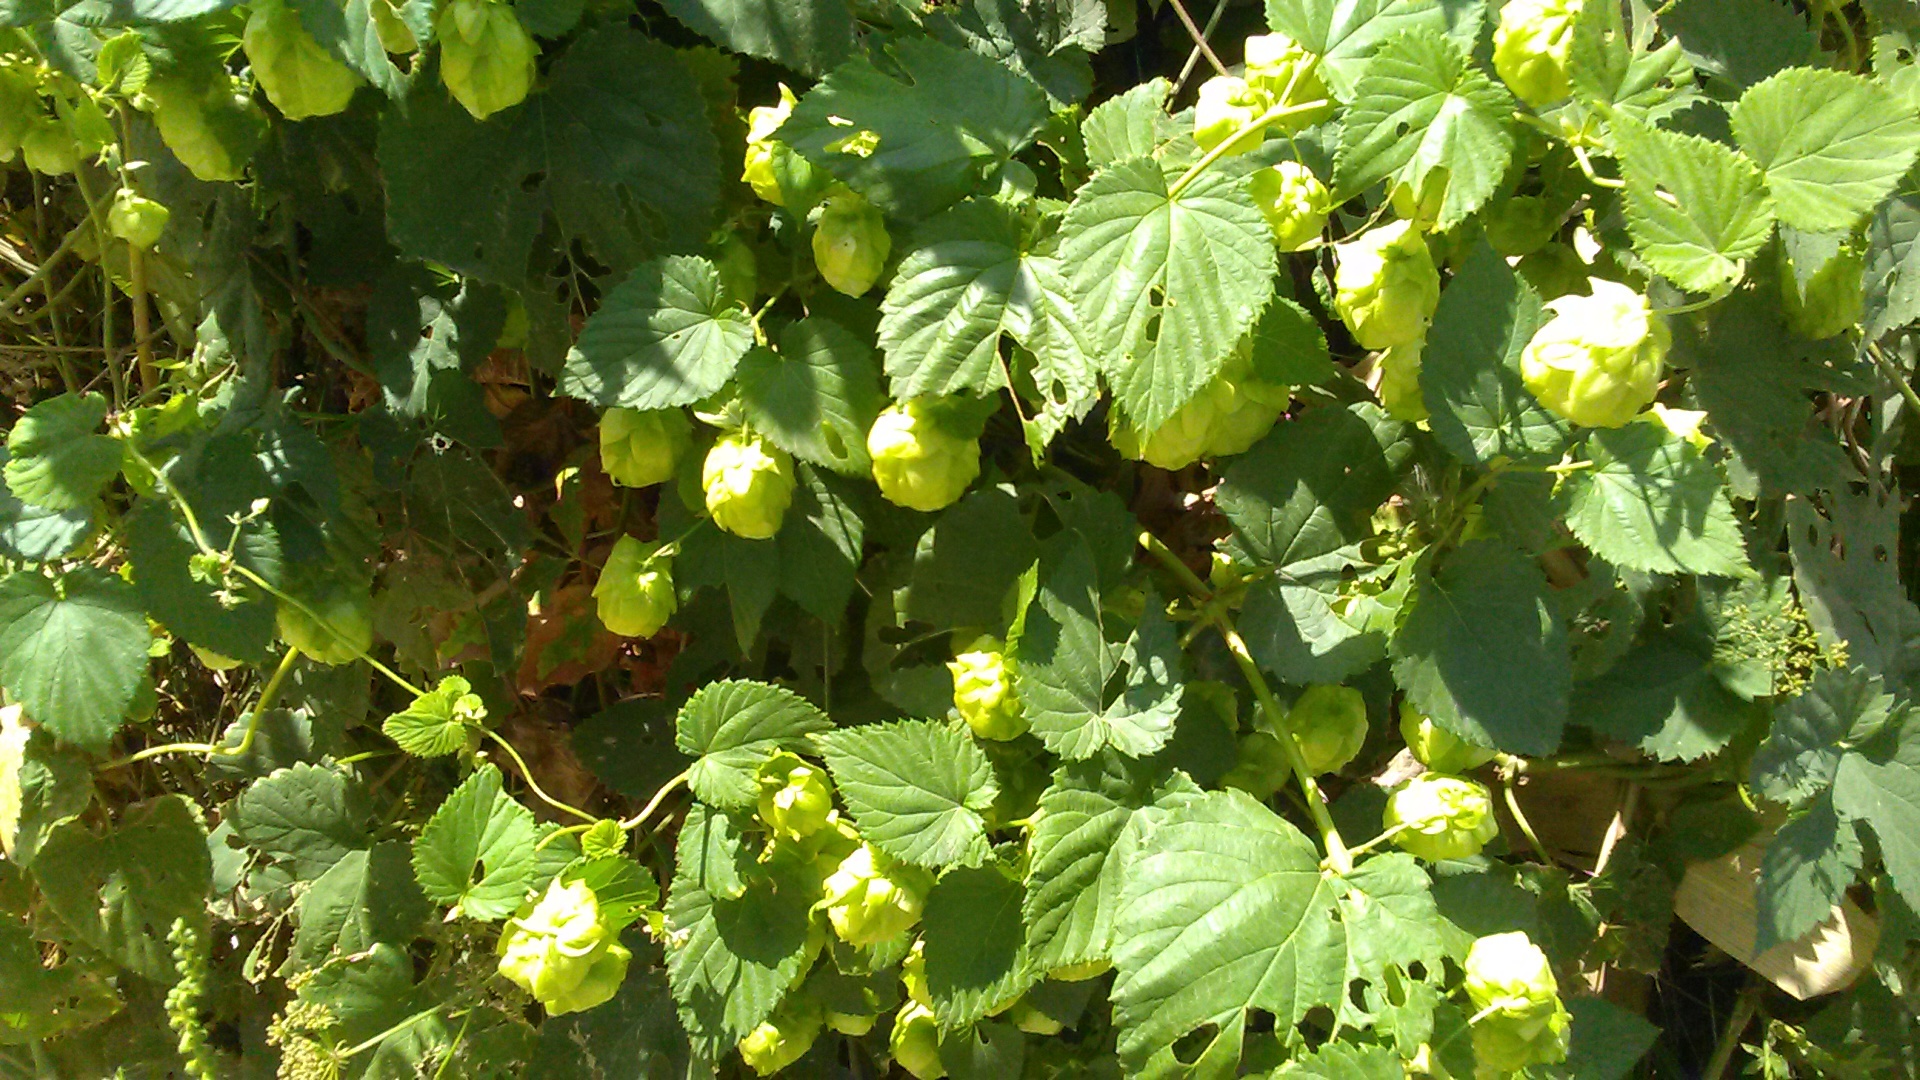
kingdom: Plantae
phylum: Tracheophyta
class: Magnoliopsida
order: Rosales
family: Cannabaceae
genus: Humulus
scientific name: Humulus lupulus
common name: Hop
